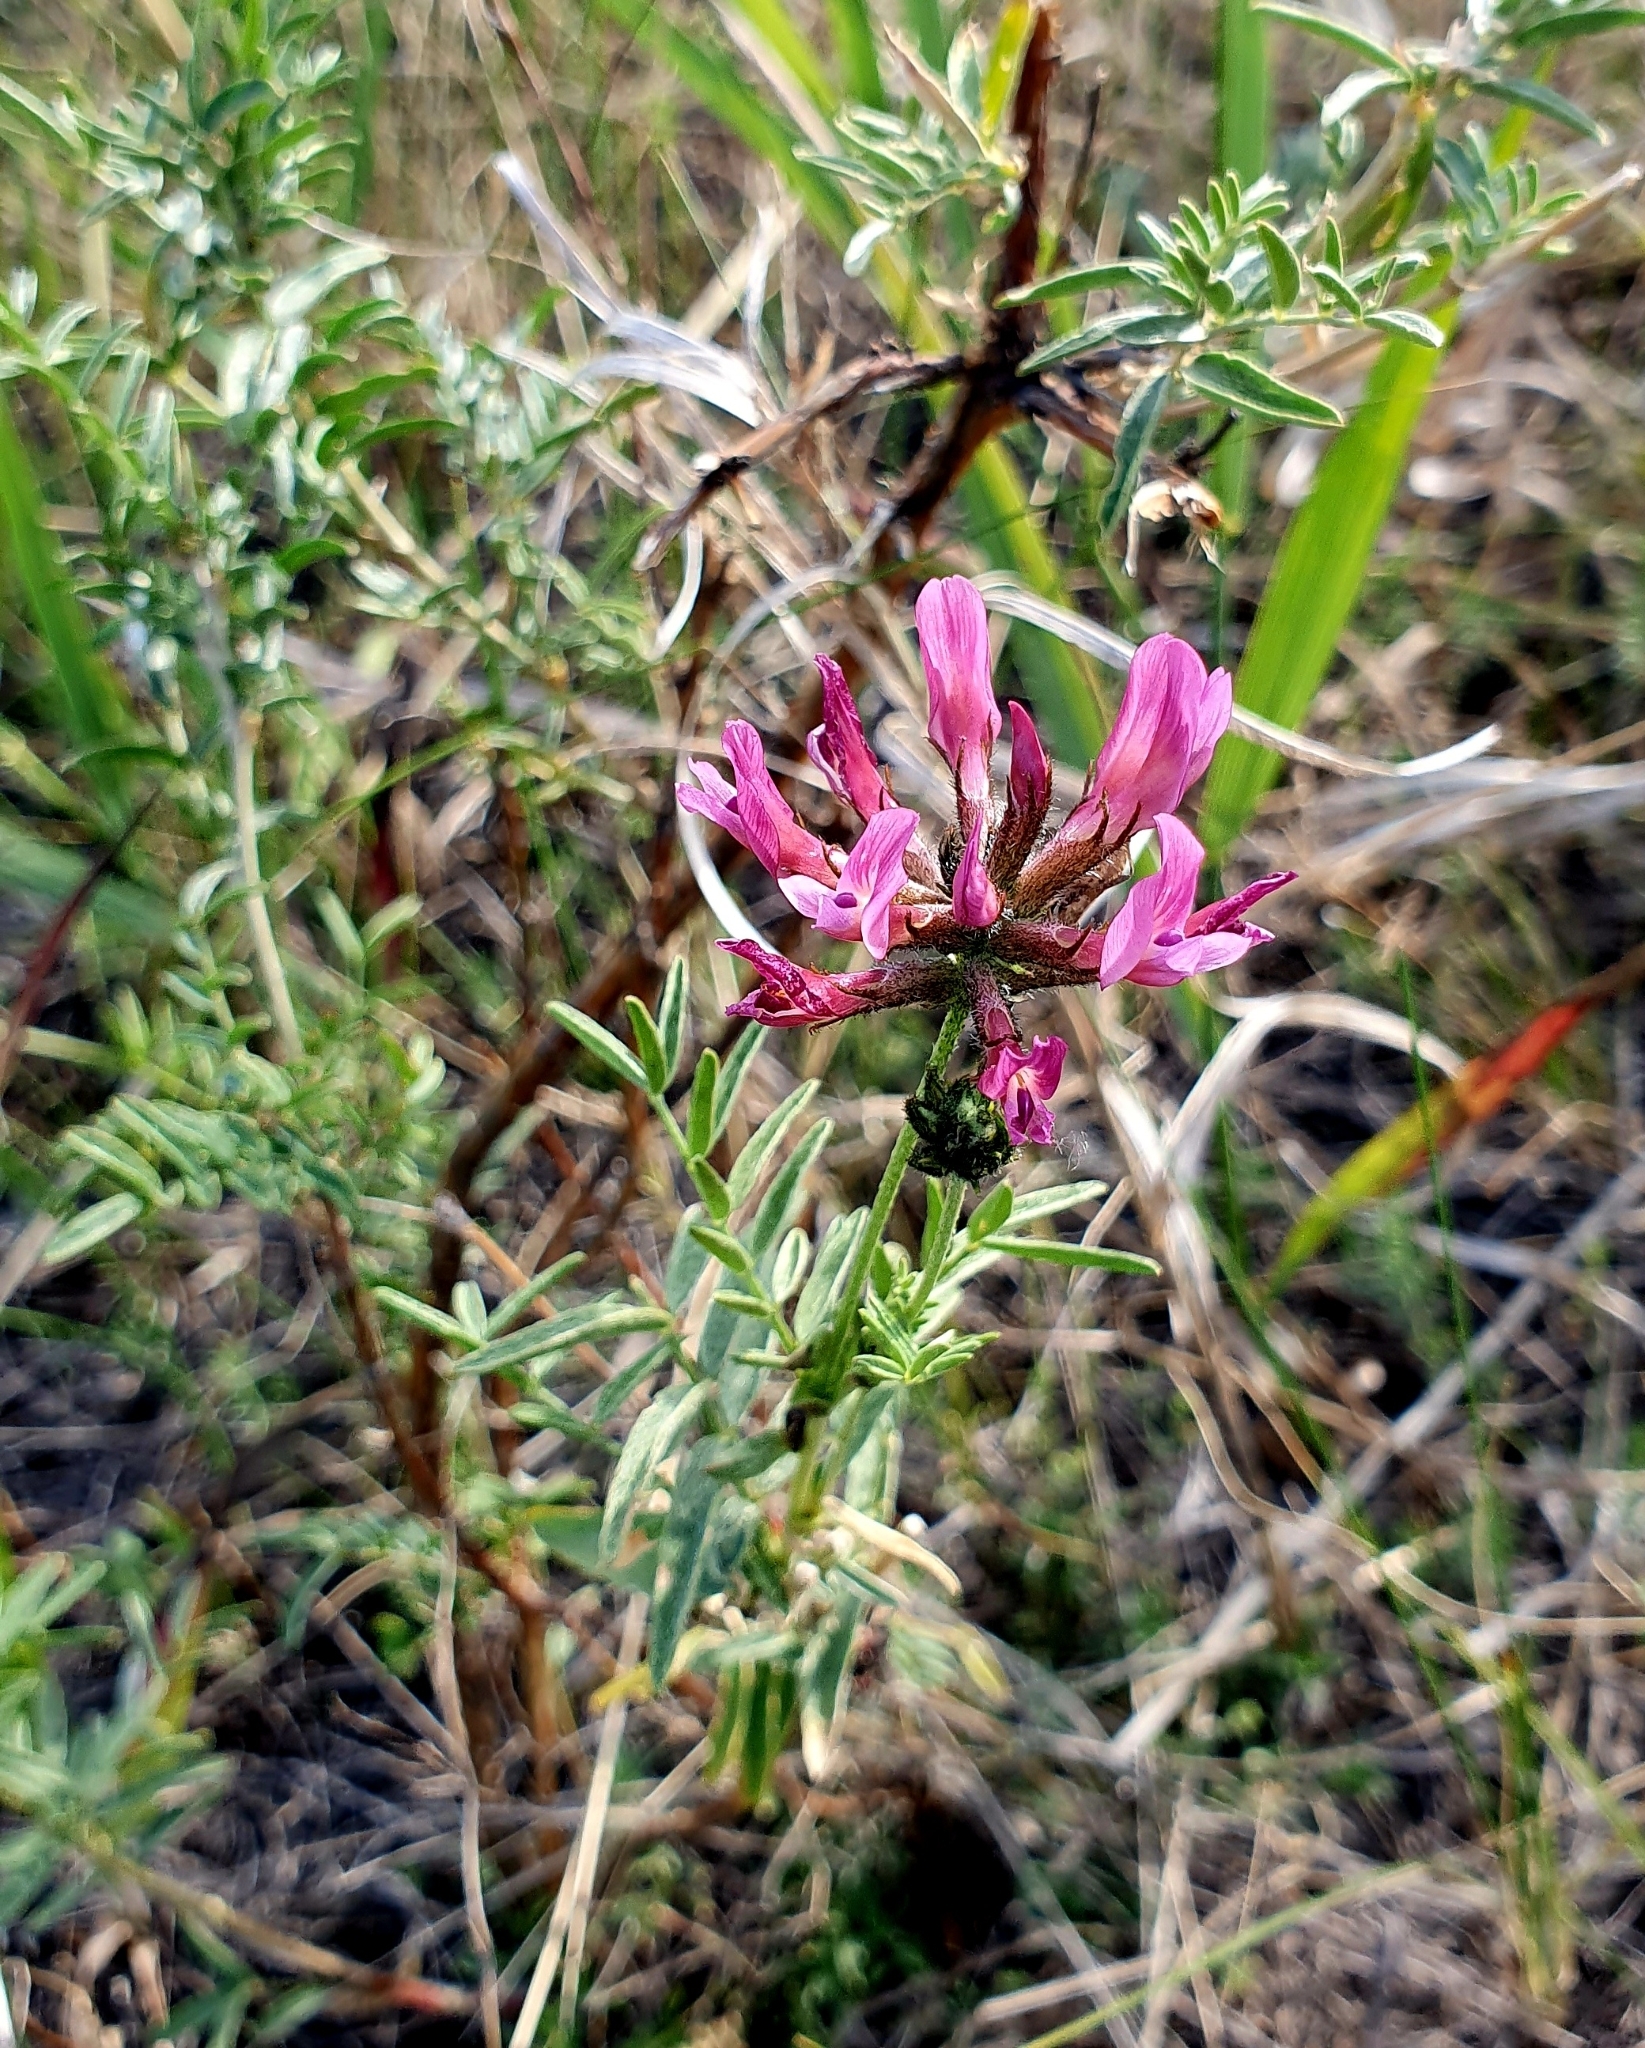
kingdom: Plantae
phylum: Tracheophyta
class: Magnoliopsida
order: Fabales
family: Fabaceae
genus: Astragalus
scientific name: Astragalus cornutus
